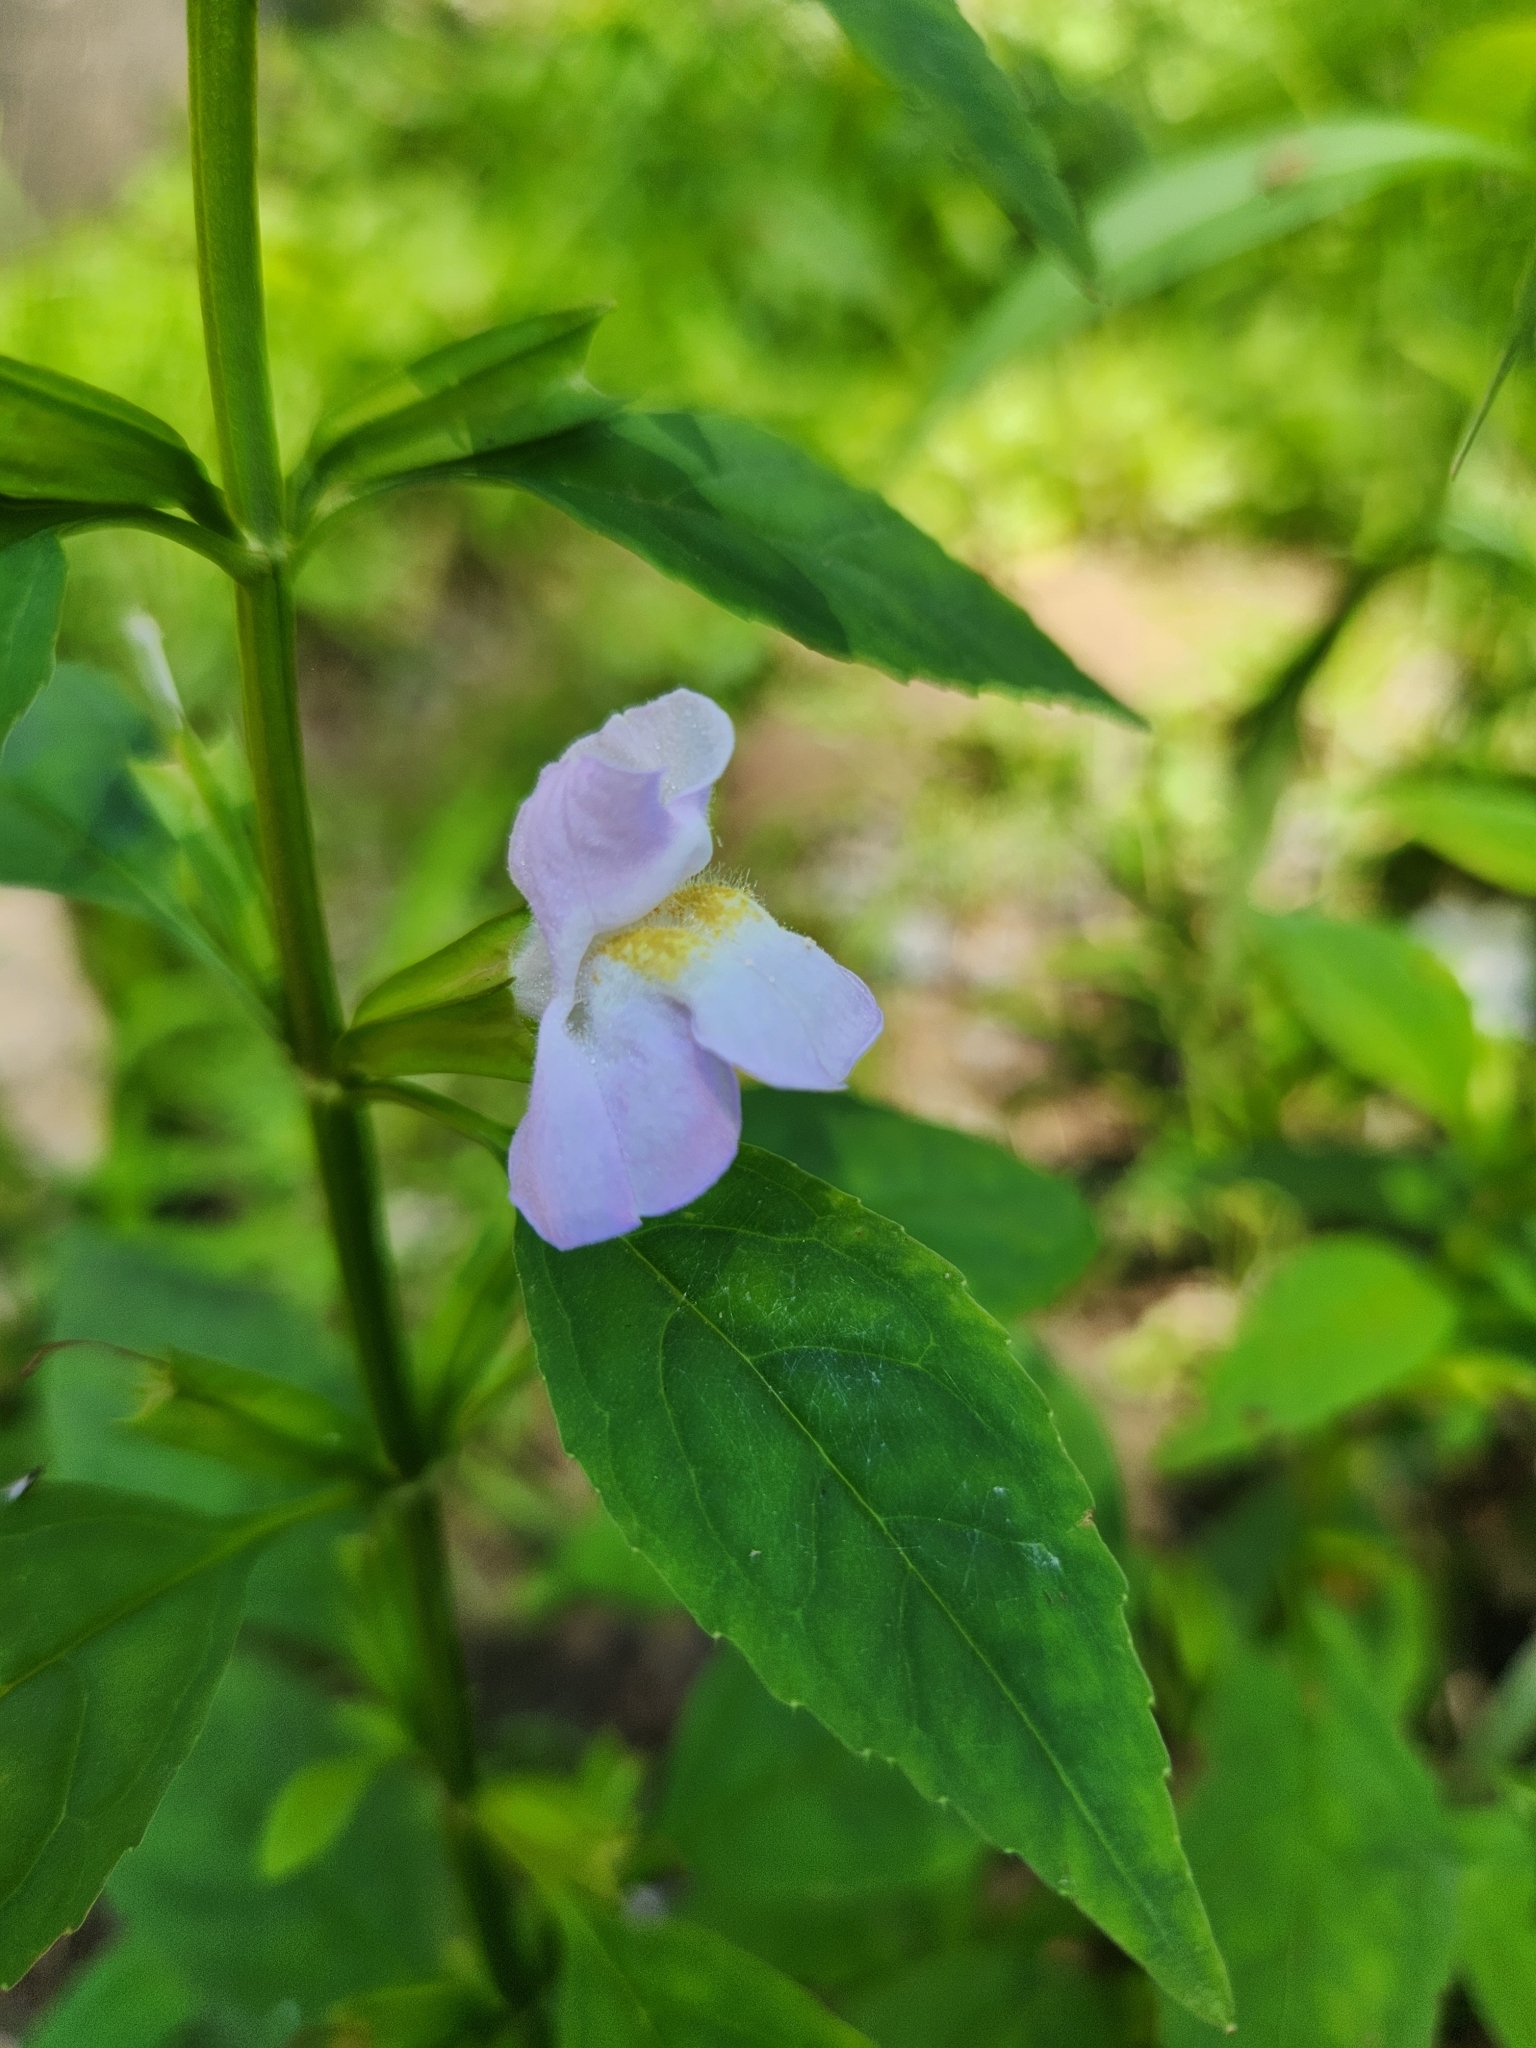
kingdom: Plantae
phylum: Tracheophyta
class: Magnoliopsida
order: Lamiales
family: Phrymaceae
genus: Mimulus
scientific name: Mimulus alatus
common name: Sharp-wing monkey-flower
